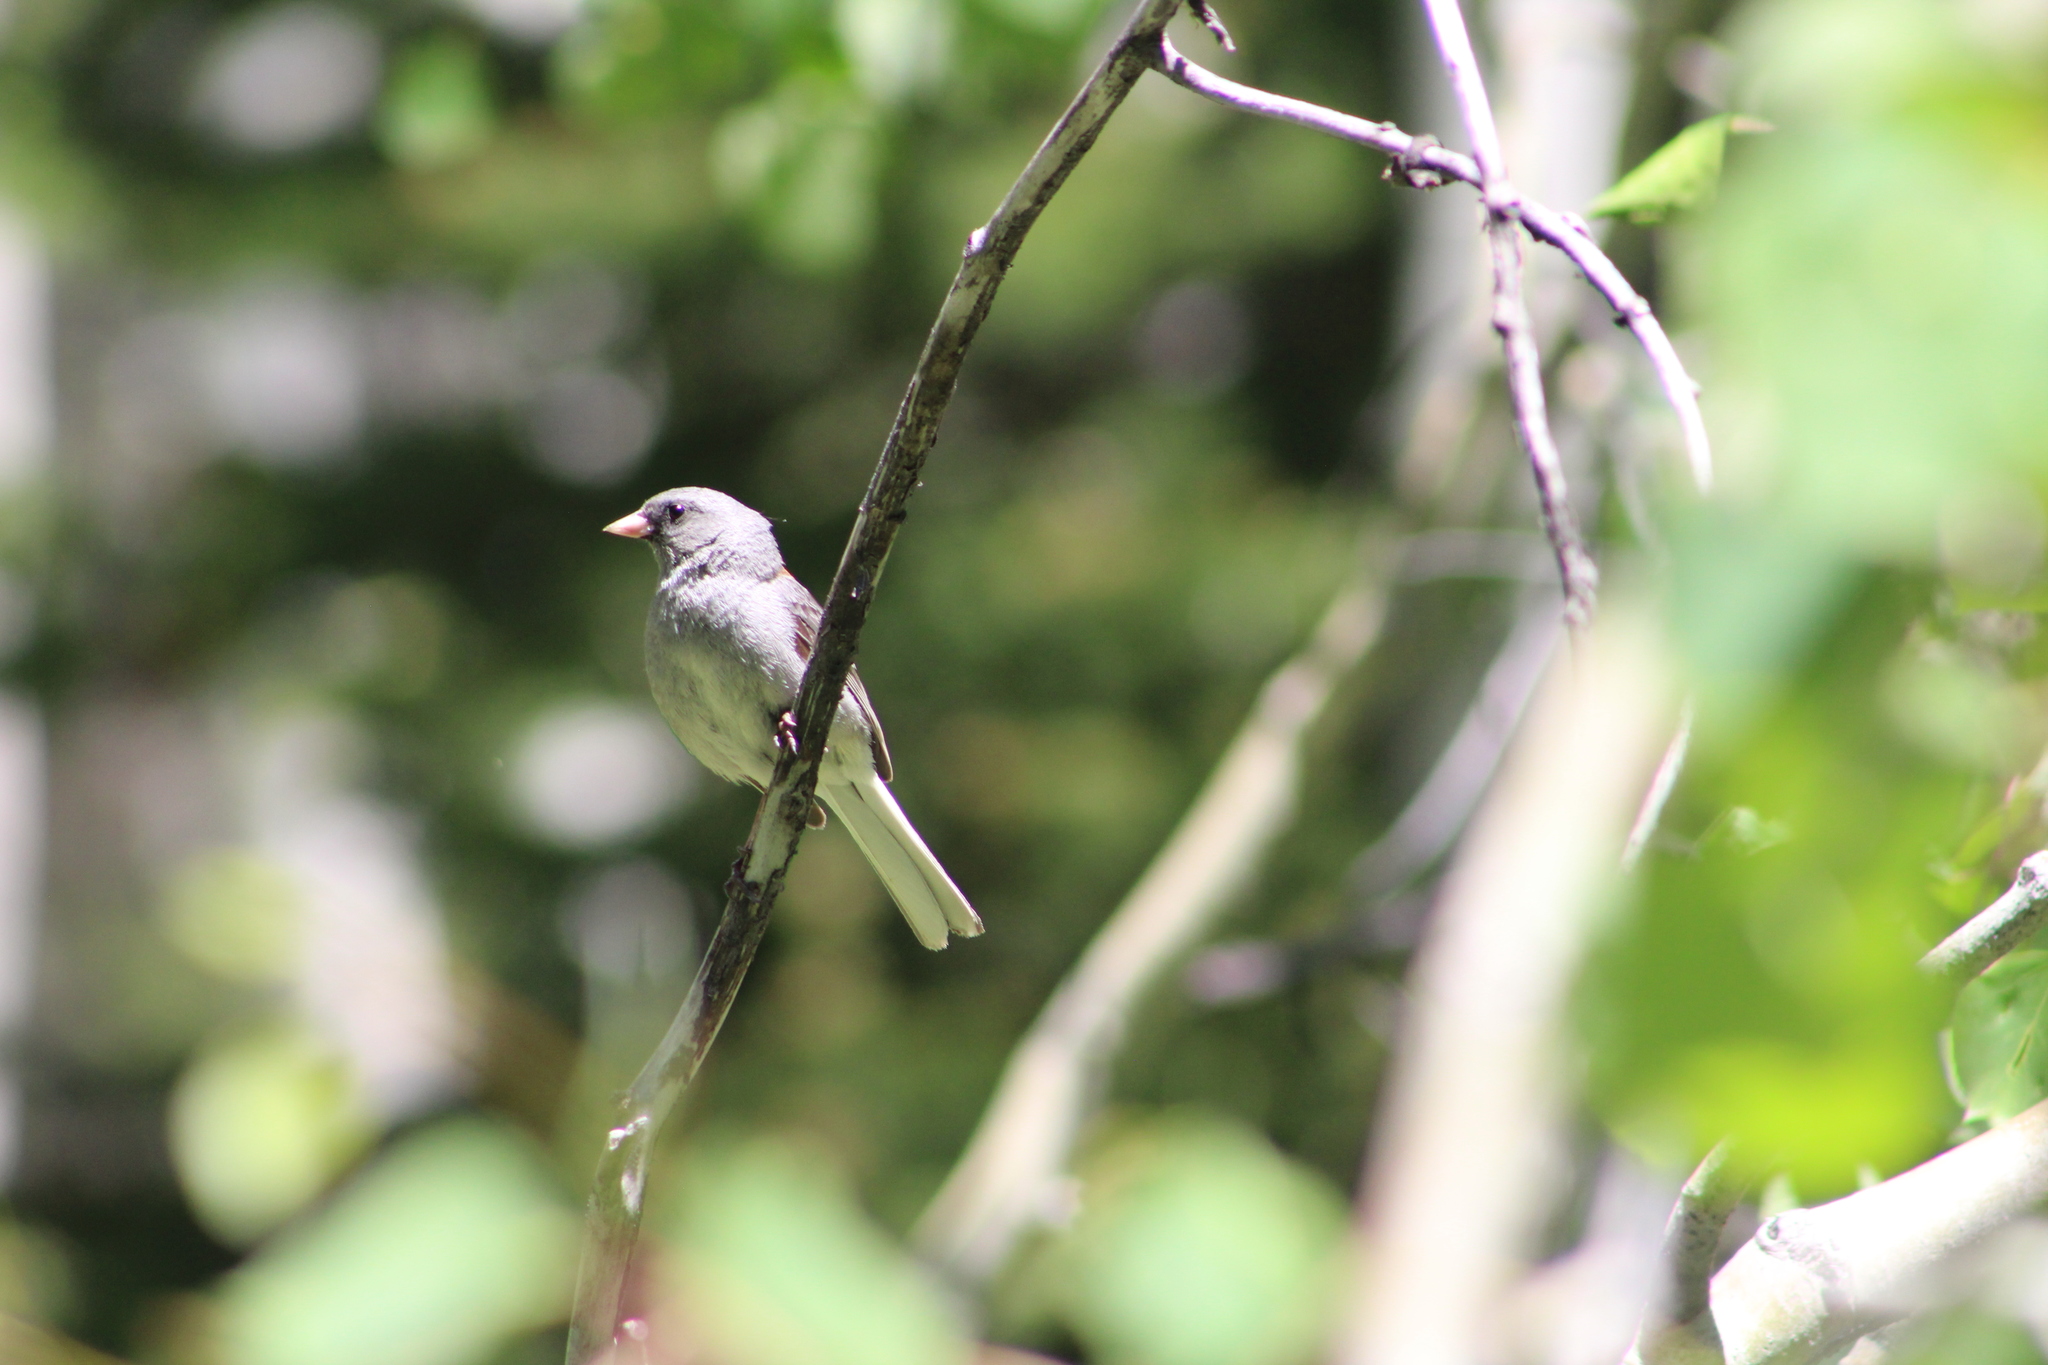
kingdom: Animalia
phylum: Chordata
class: Aves
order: Passeriformes
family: Passerellidae
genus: Junco
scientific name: Junco hyemalis
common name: Dark-eyed junco
